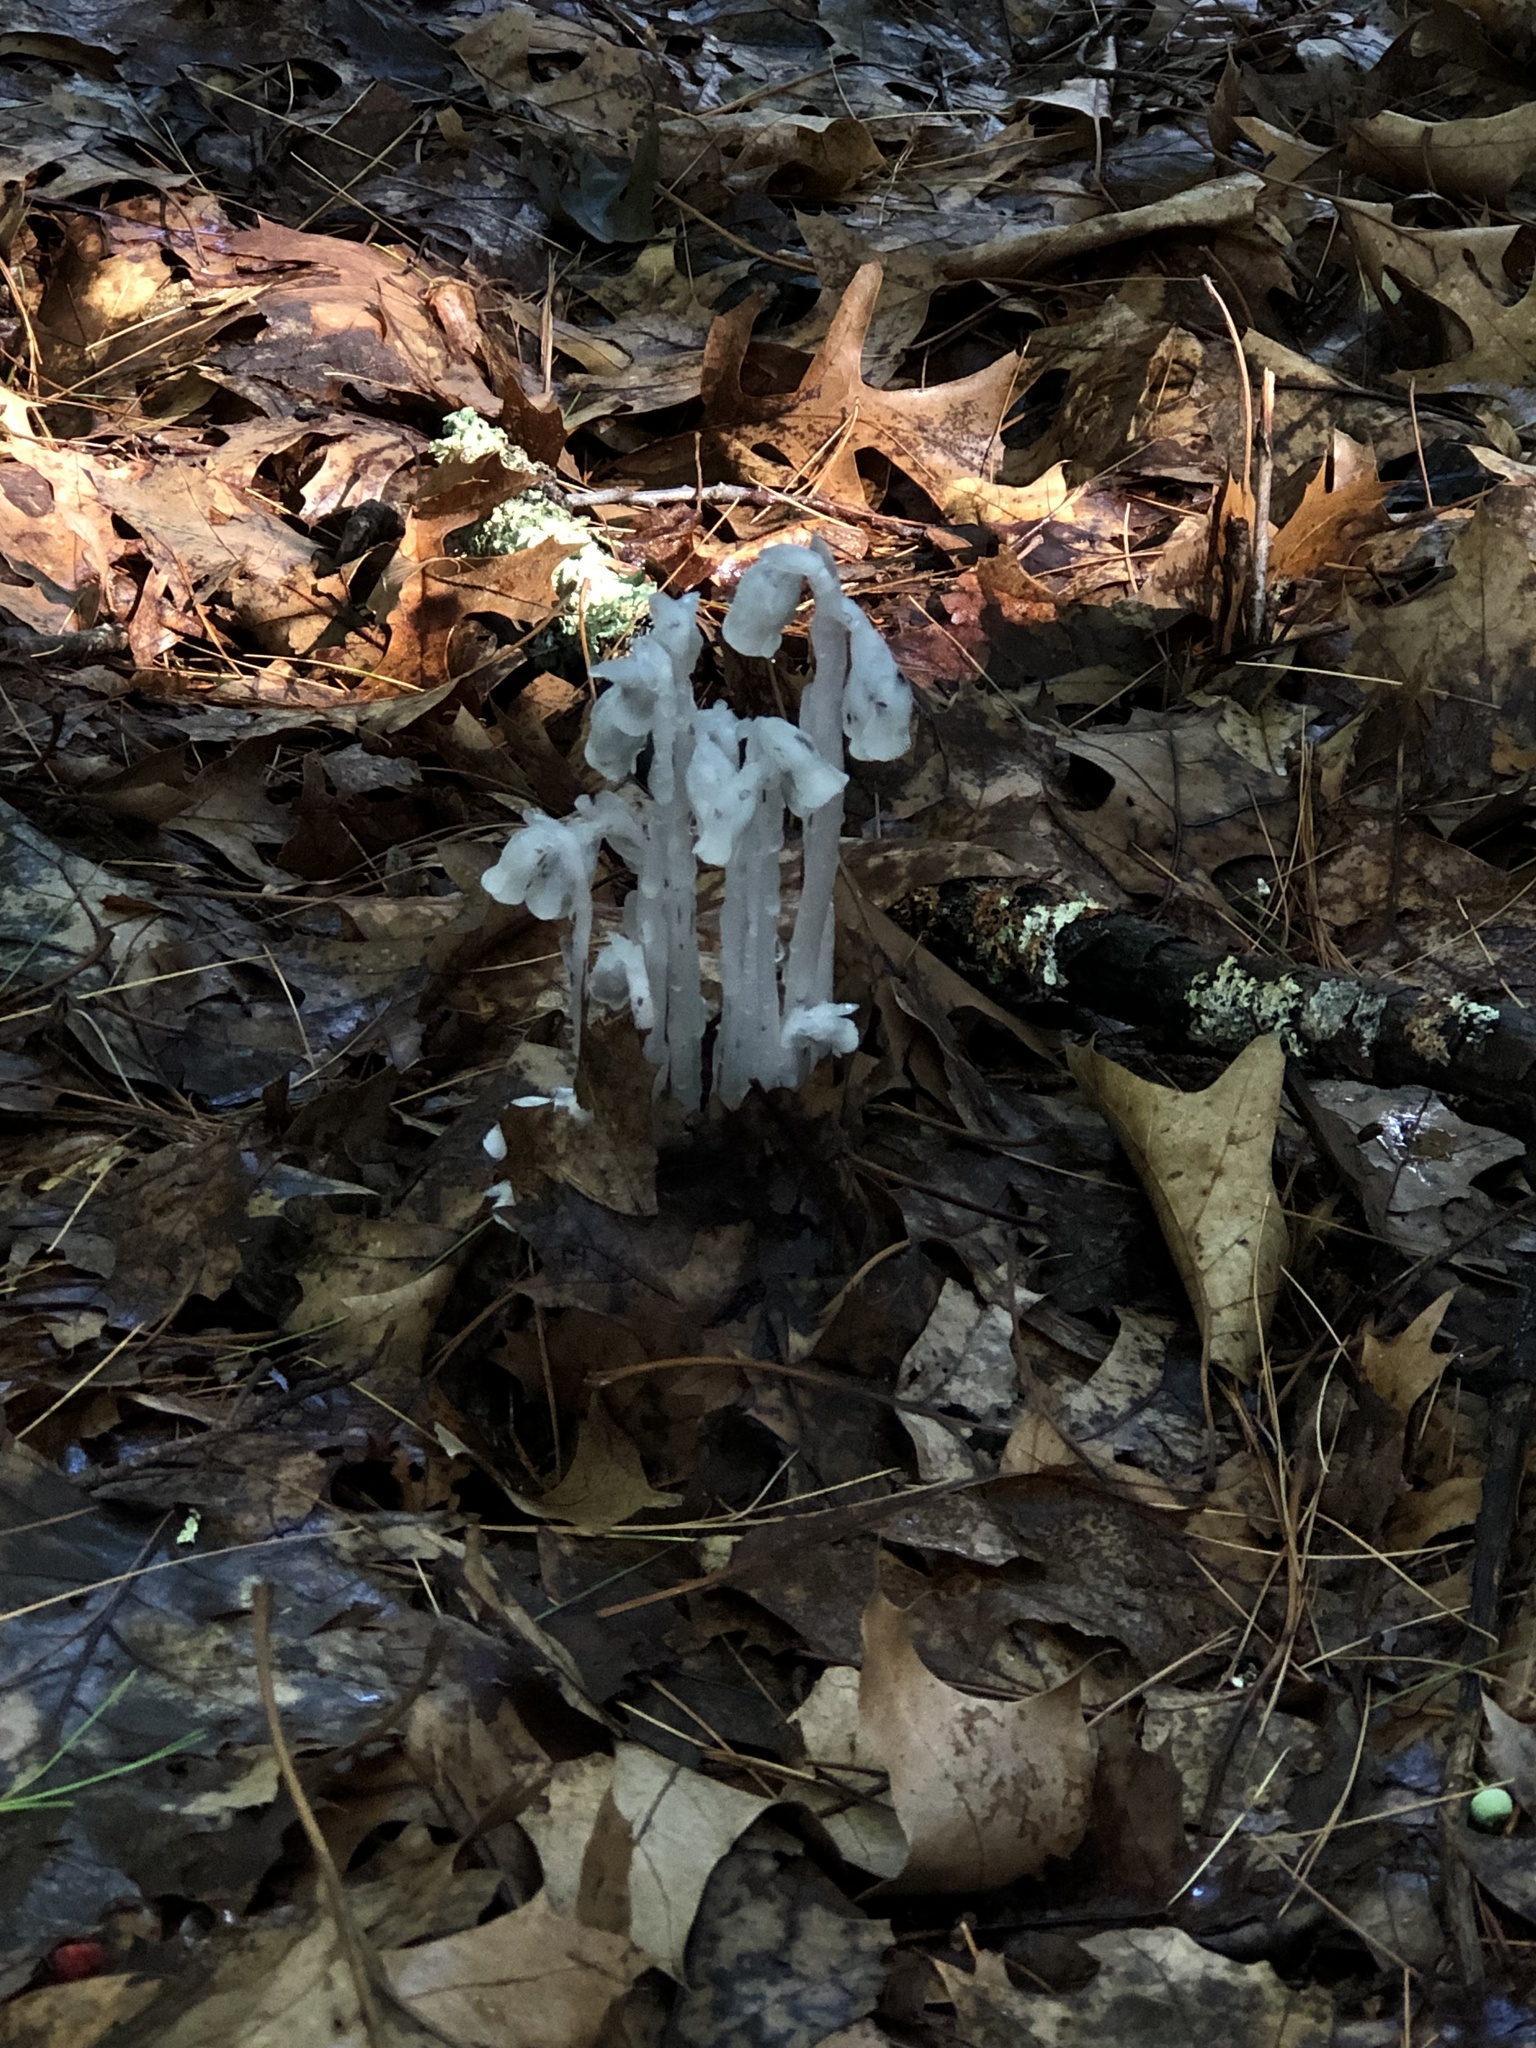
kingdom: Plantae
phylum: Tracheophyta
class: Magnoliopsida
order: Ericales
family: Ericaceae
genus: Monotropa
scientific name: Monotropa uniflora
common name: Convulsion root
